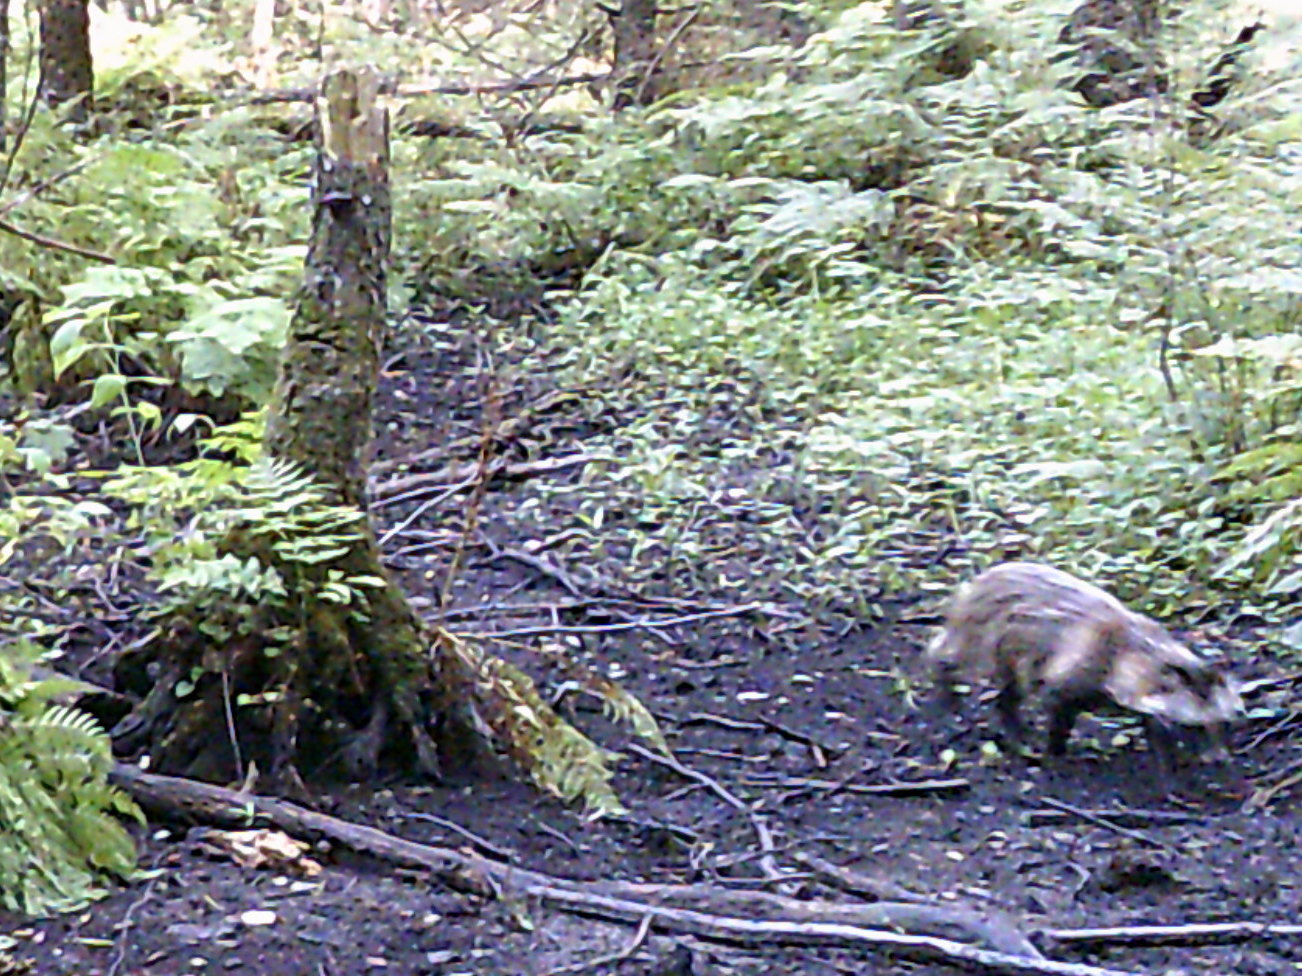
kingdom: Animalia
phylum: Chordata
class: Mammalia
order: Carnivora
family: Canidae
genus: Nyctereutes
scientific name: Nyctereutes procyonoides
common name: Raccoon dog
